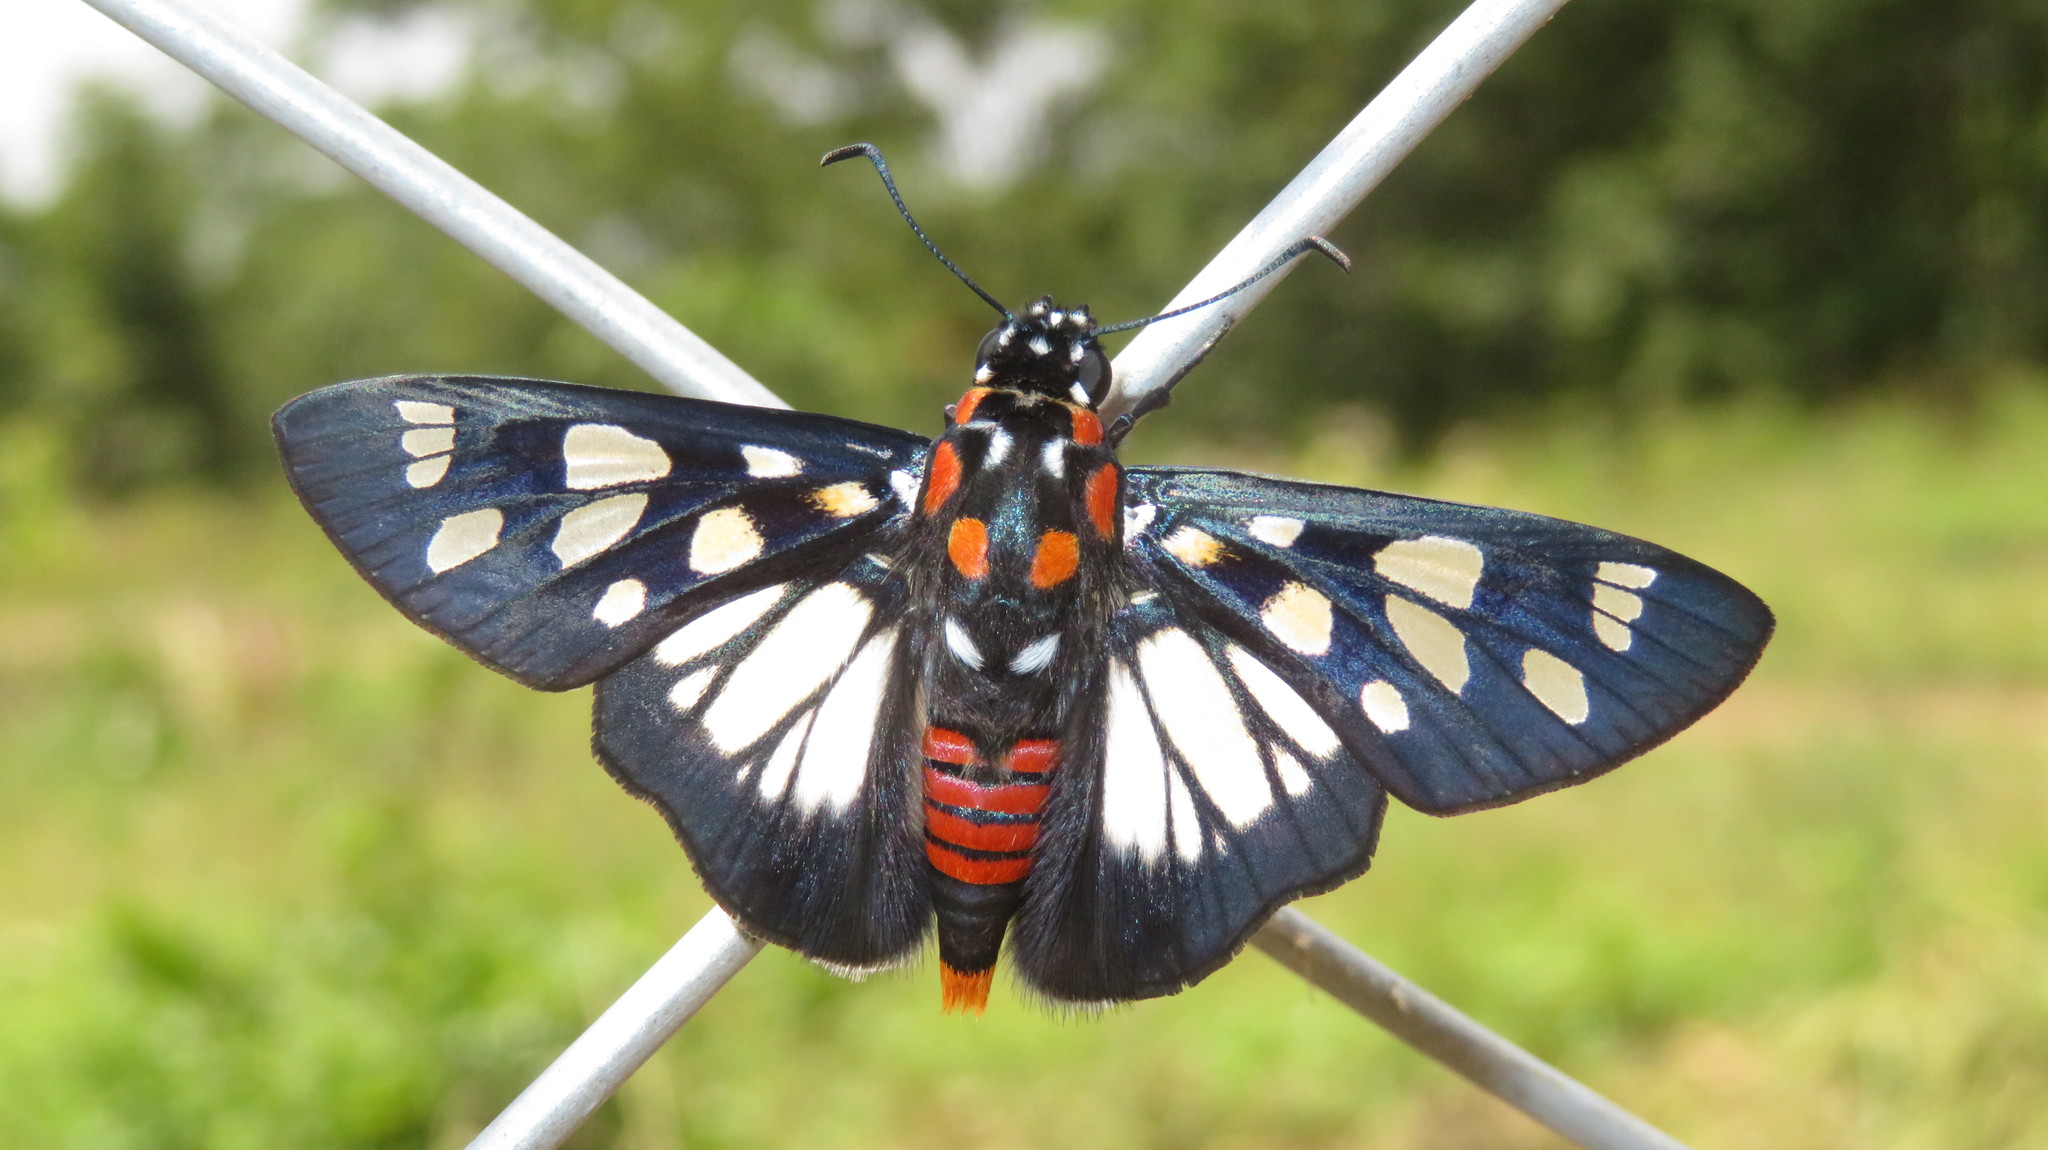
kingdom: Animalia
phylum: Arthropoda
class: Insecta
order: Lepidoptera
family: Hesperiidae
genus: Abantis
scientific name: Abantis paradisea
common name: Paradise skipper
